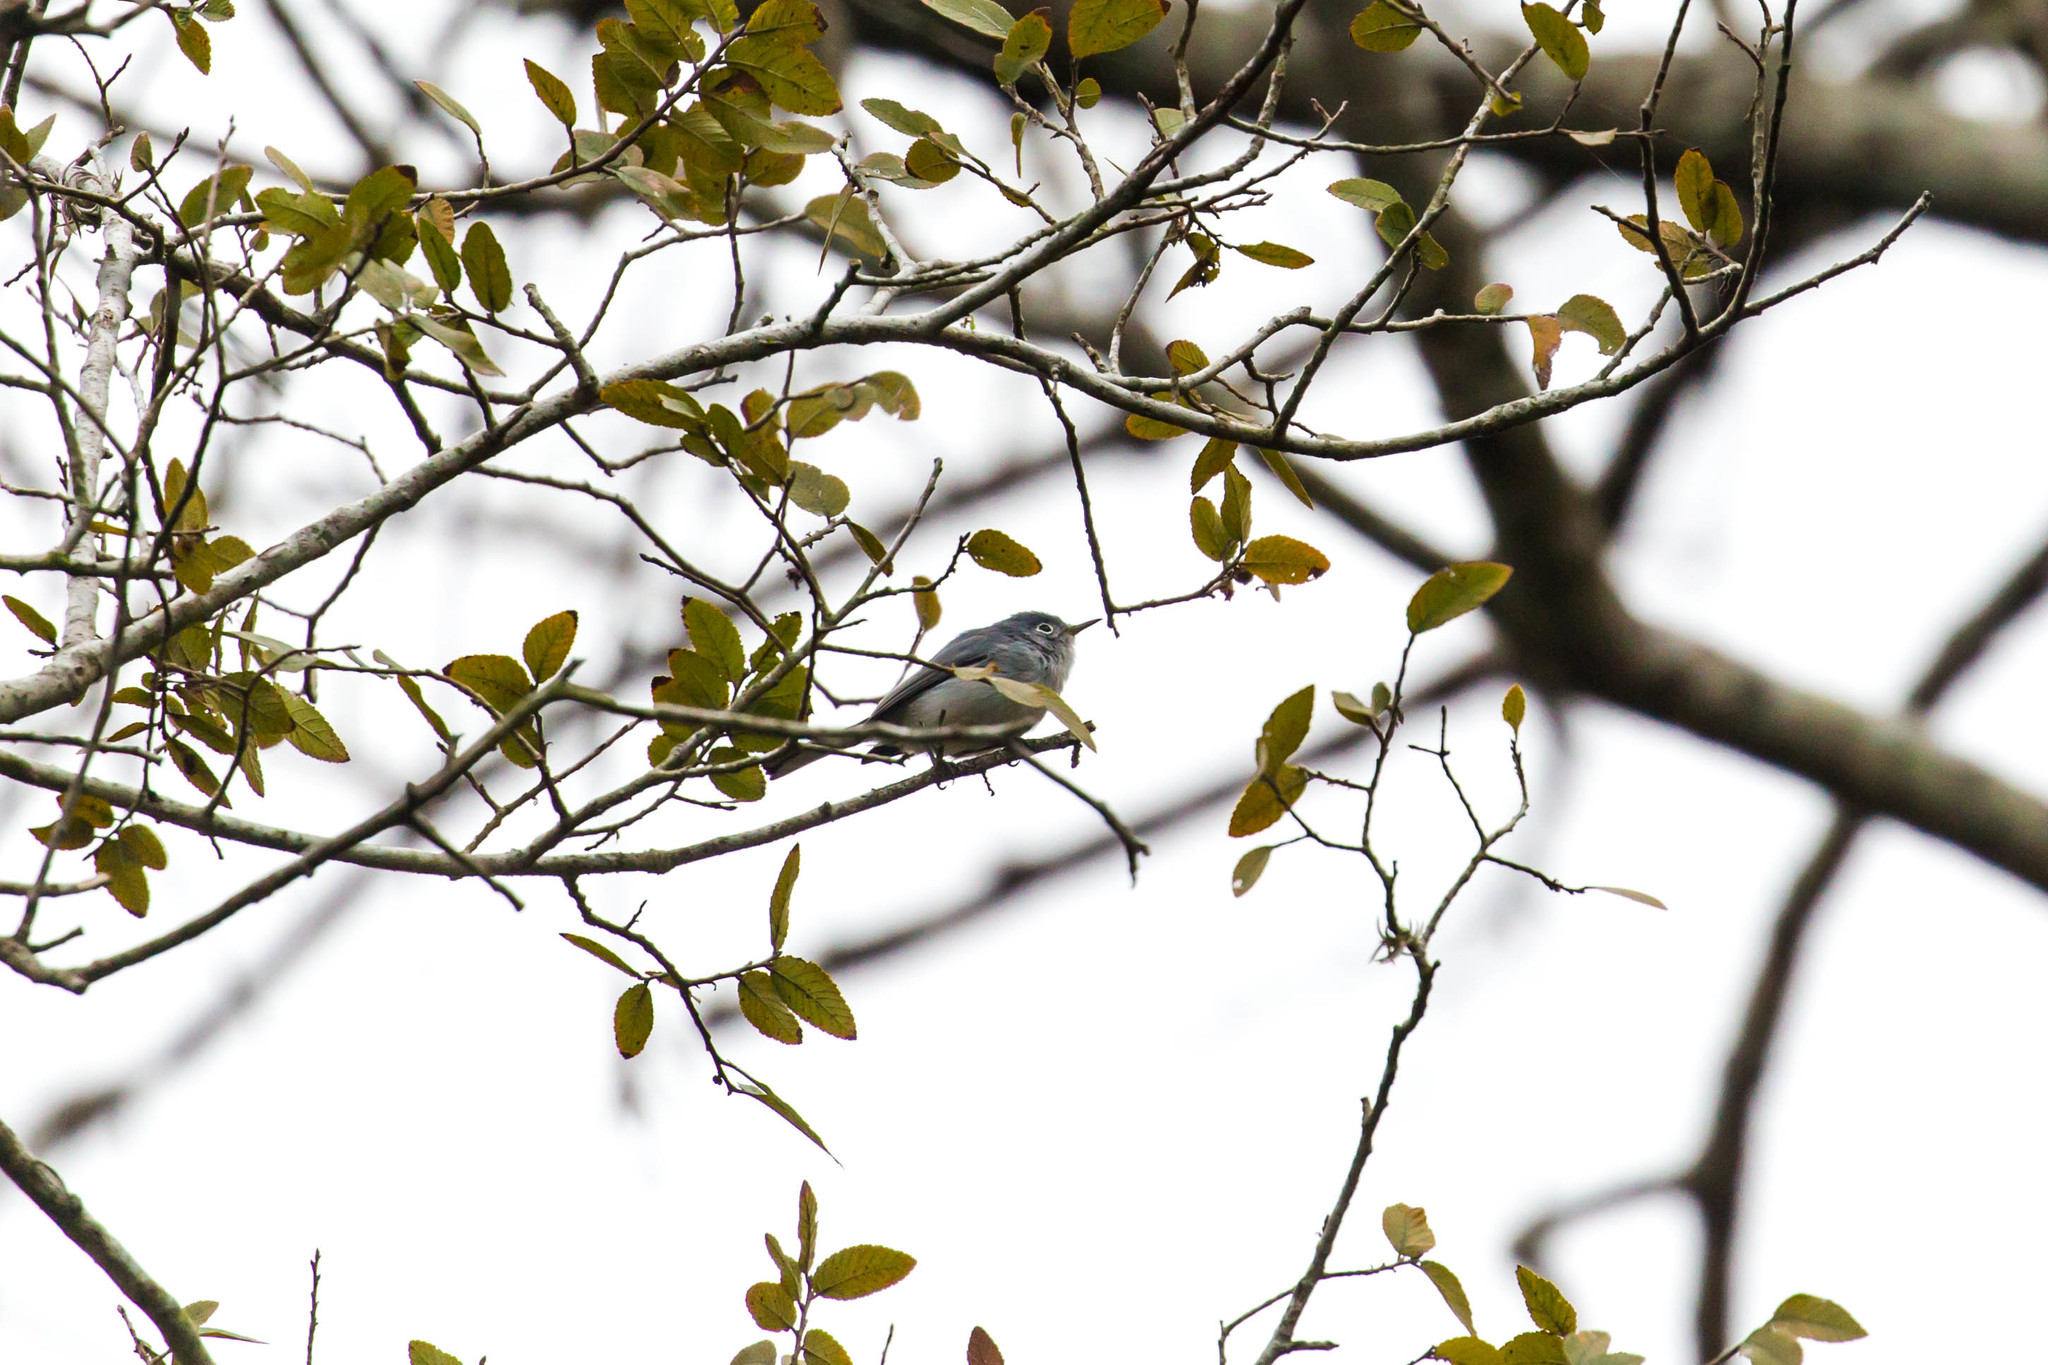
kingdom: Animalia
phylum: Chordata
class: Aves
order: Passeriformes
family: Polioptilidae
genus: Polioptila
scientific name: Polioptila caerulea
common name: Blue-gray gnatcatcher
